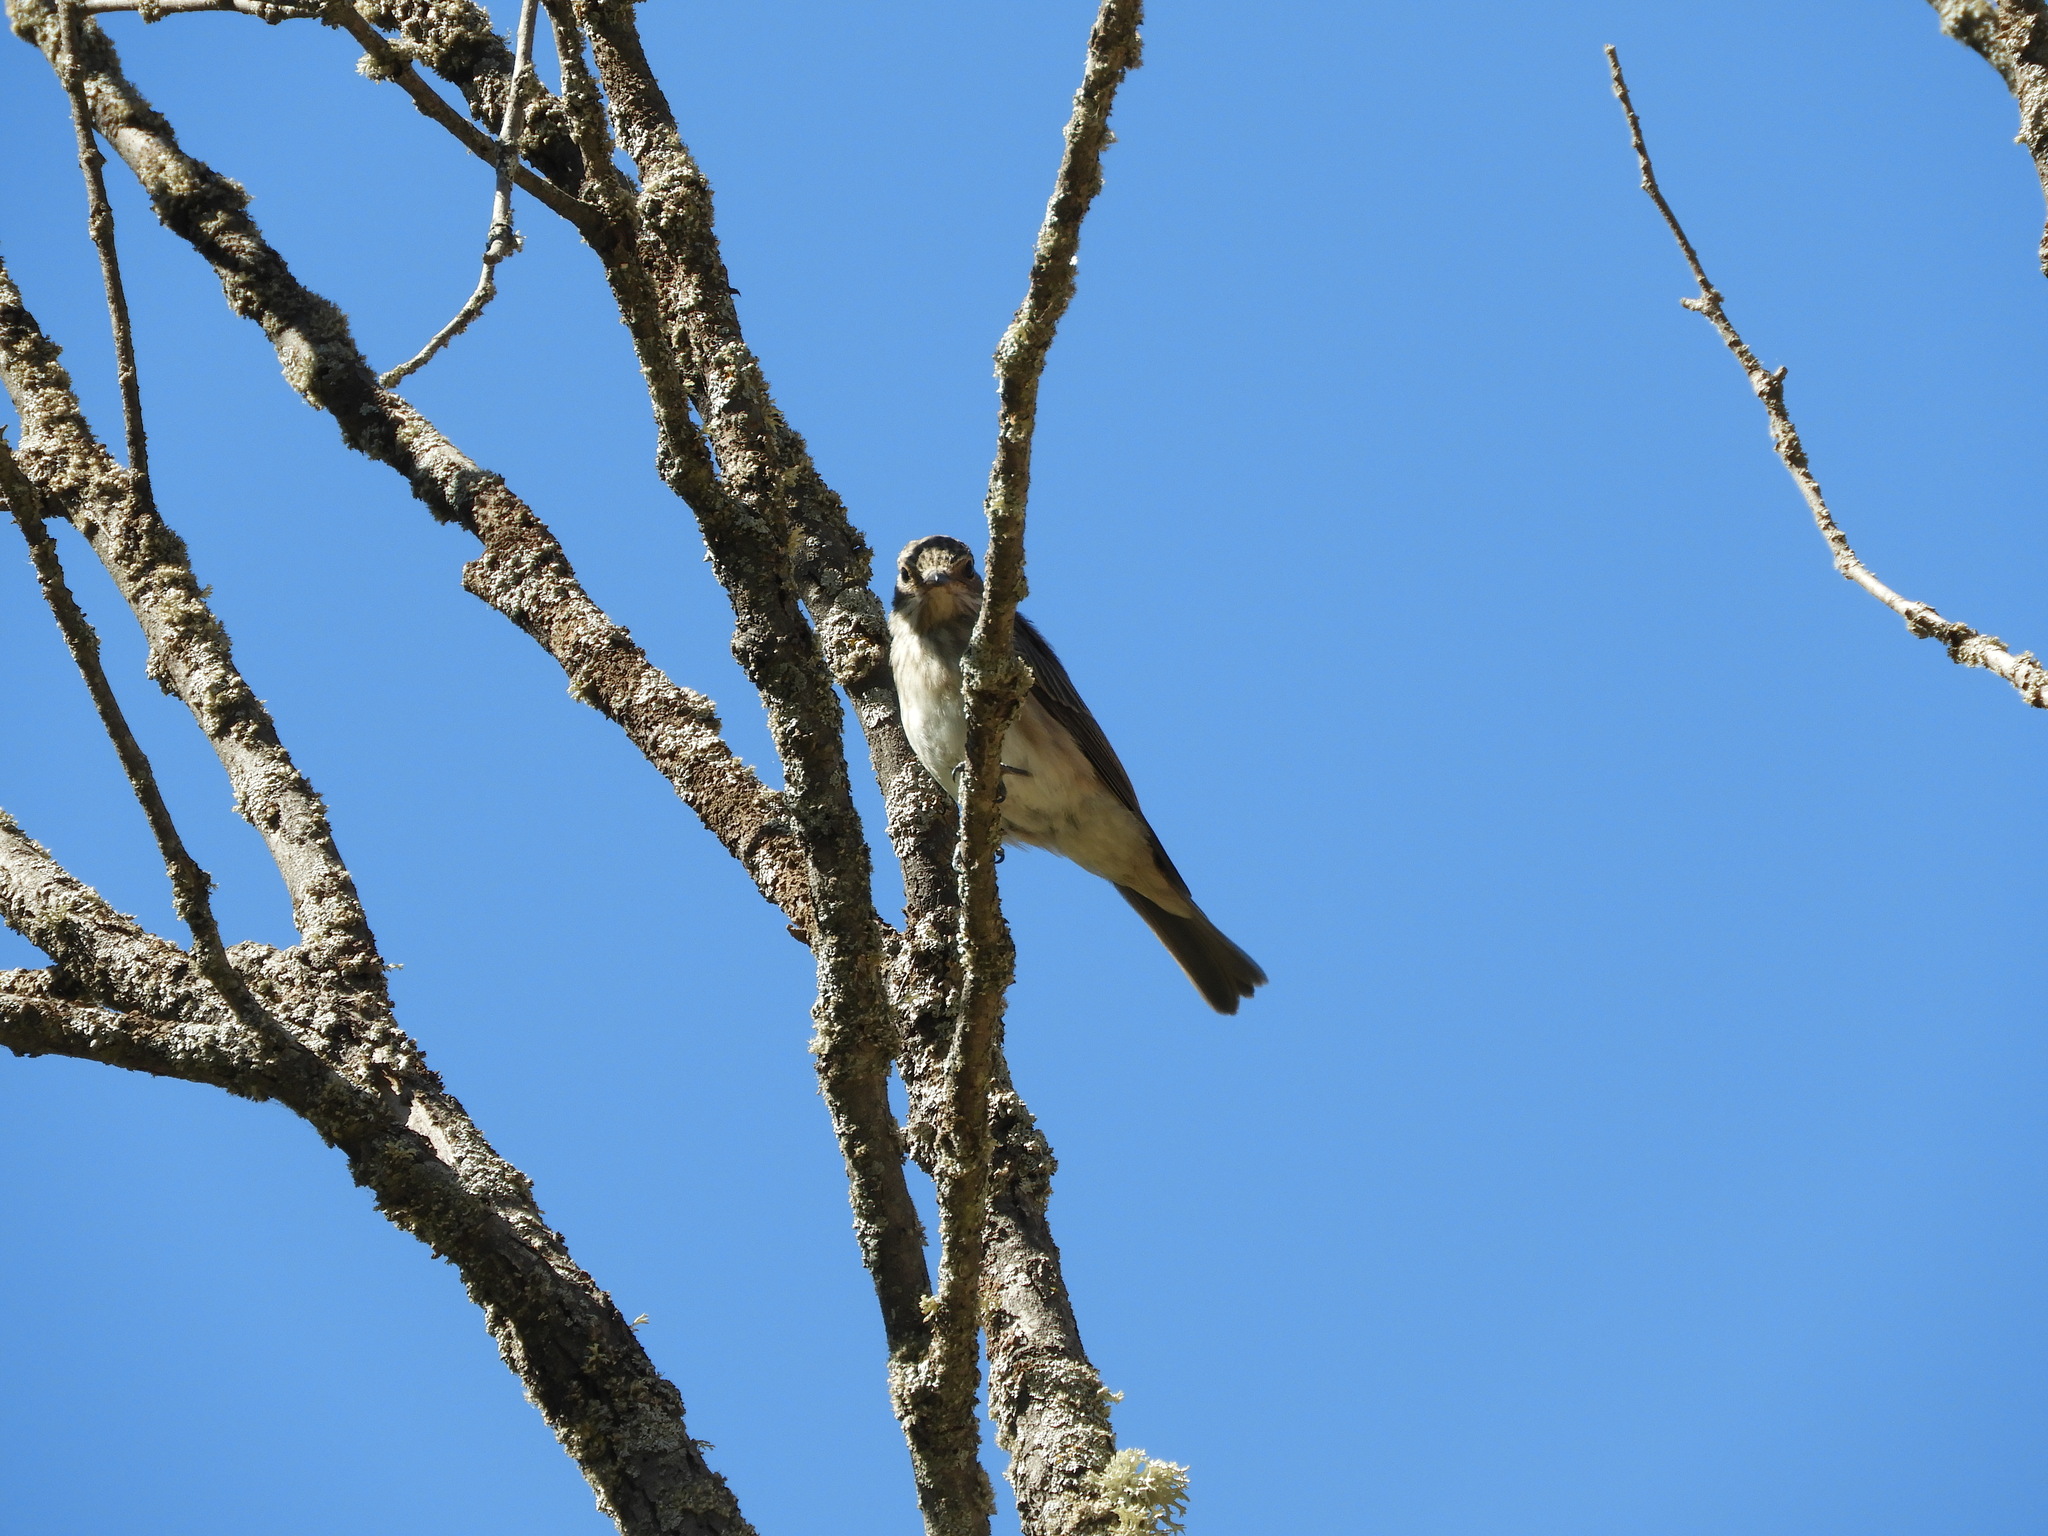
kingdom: Animalia
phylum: Chordata
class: Aves
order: Passeriformes
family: Muscicapidae
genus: Muscicapa
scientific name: Muscicapa striata
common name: Spotted flycatcher
